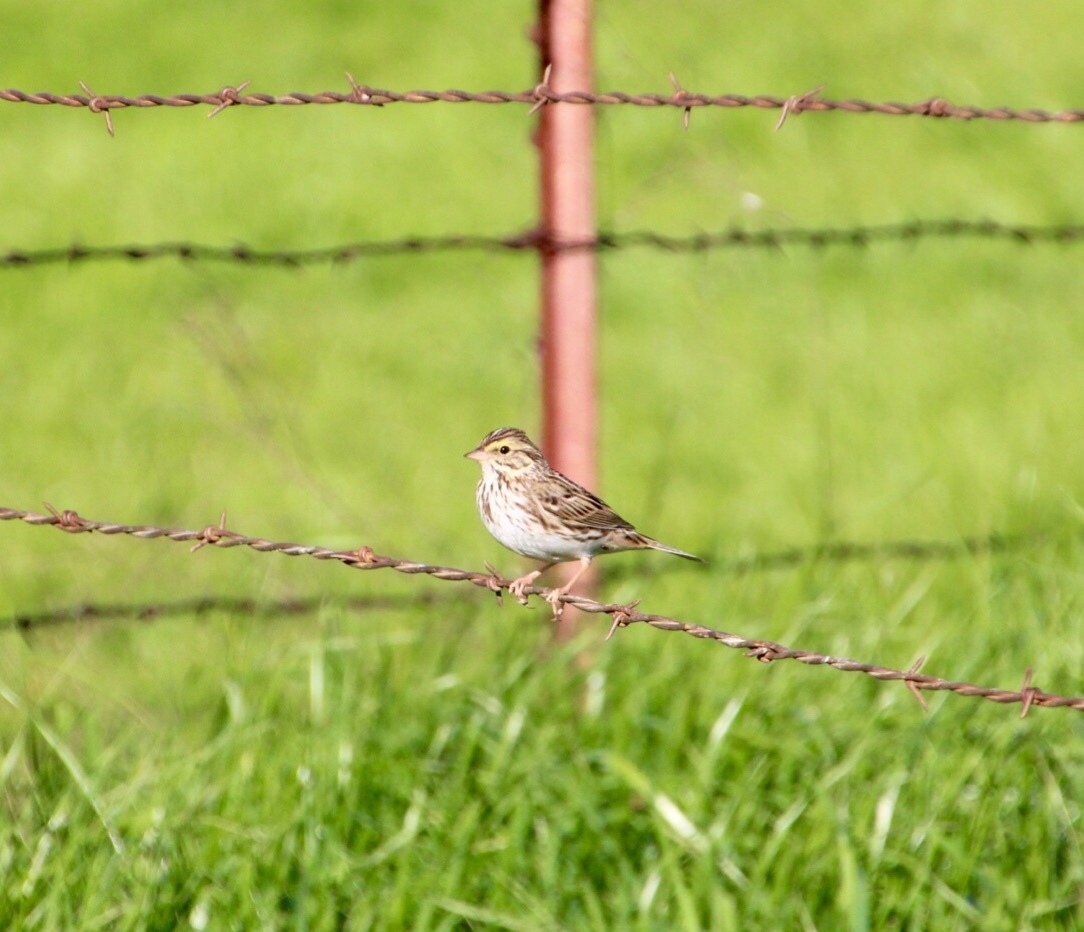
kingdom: Animalia
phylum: Chordata
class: Aves
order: Passeriformes
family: Passerellidae
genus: Passerculus
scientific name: Passerculus sandwichensis
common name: Savannah sparrow
